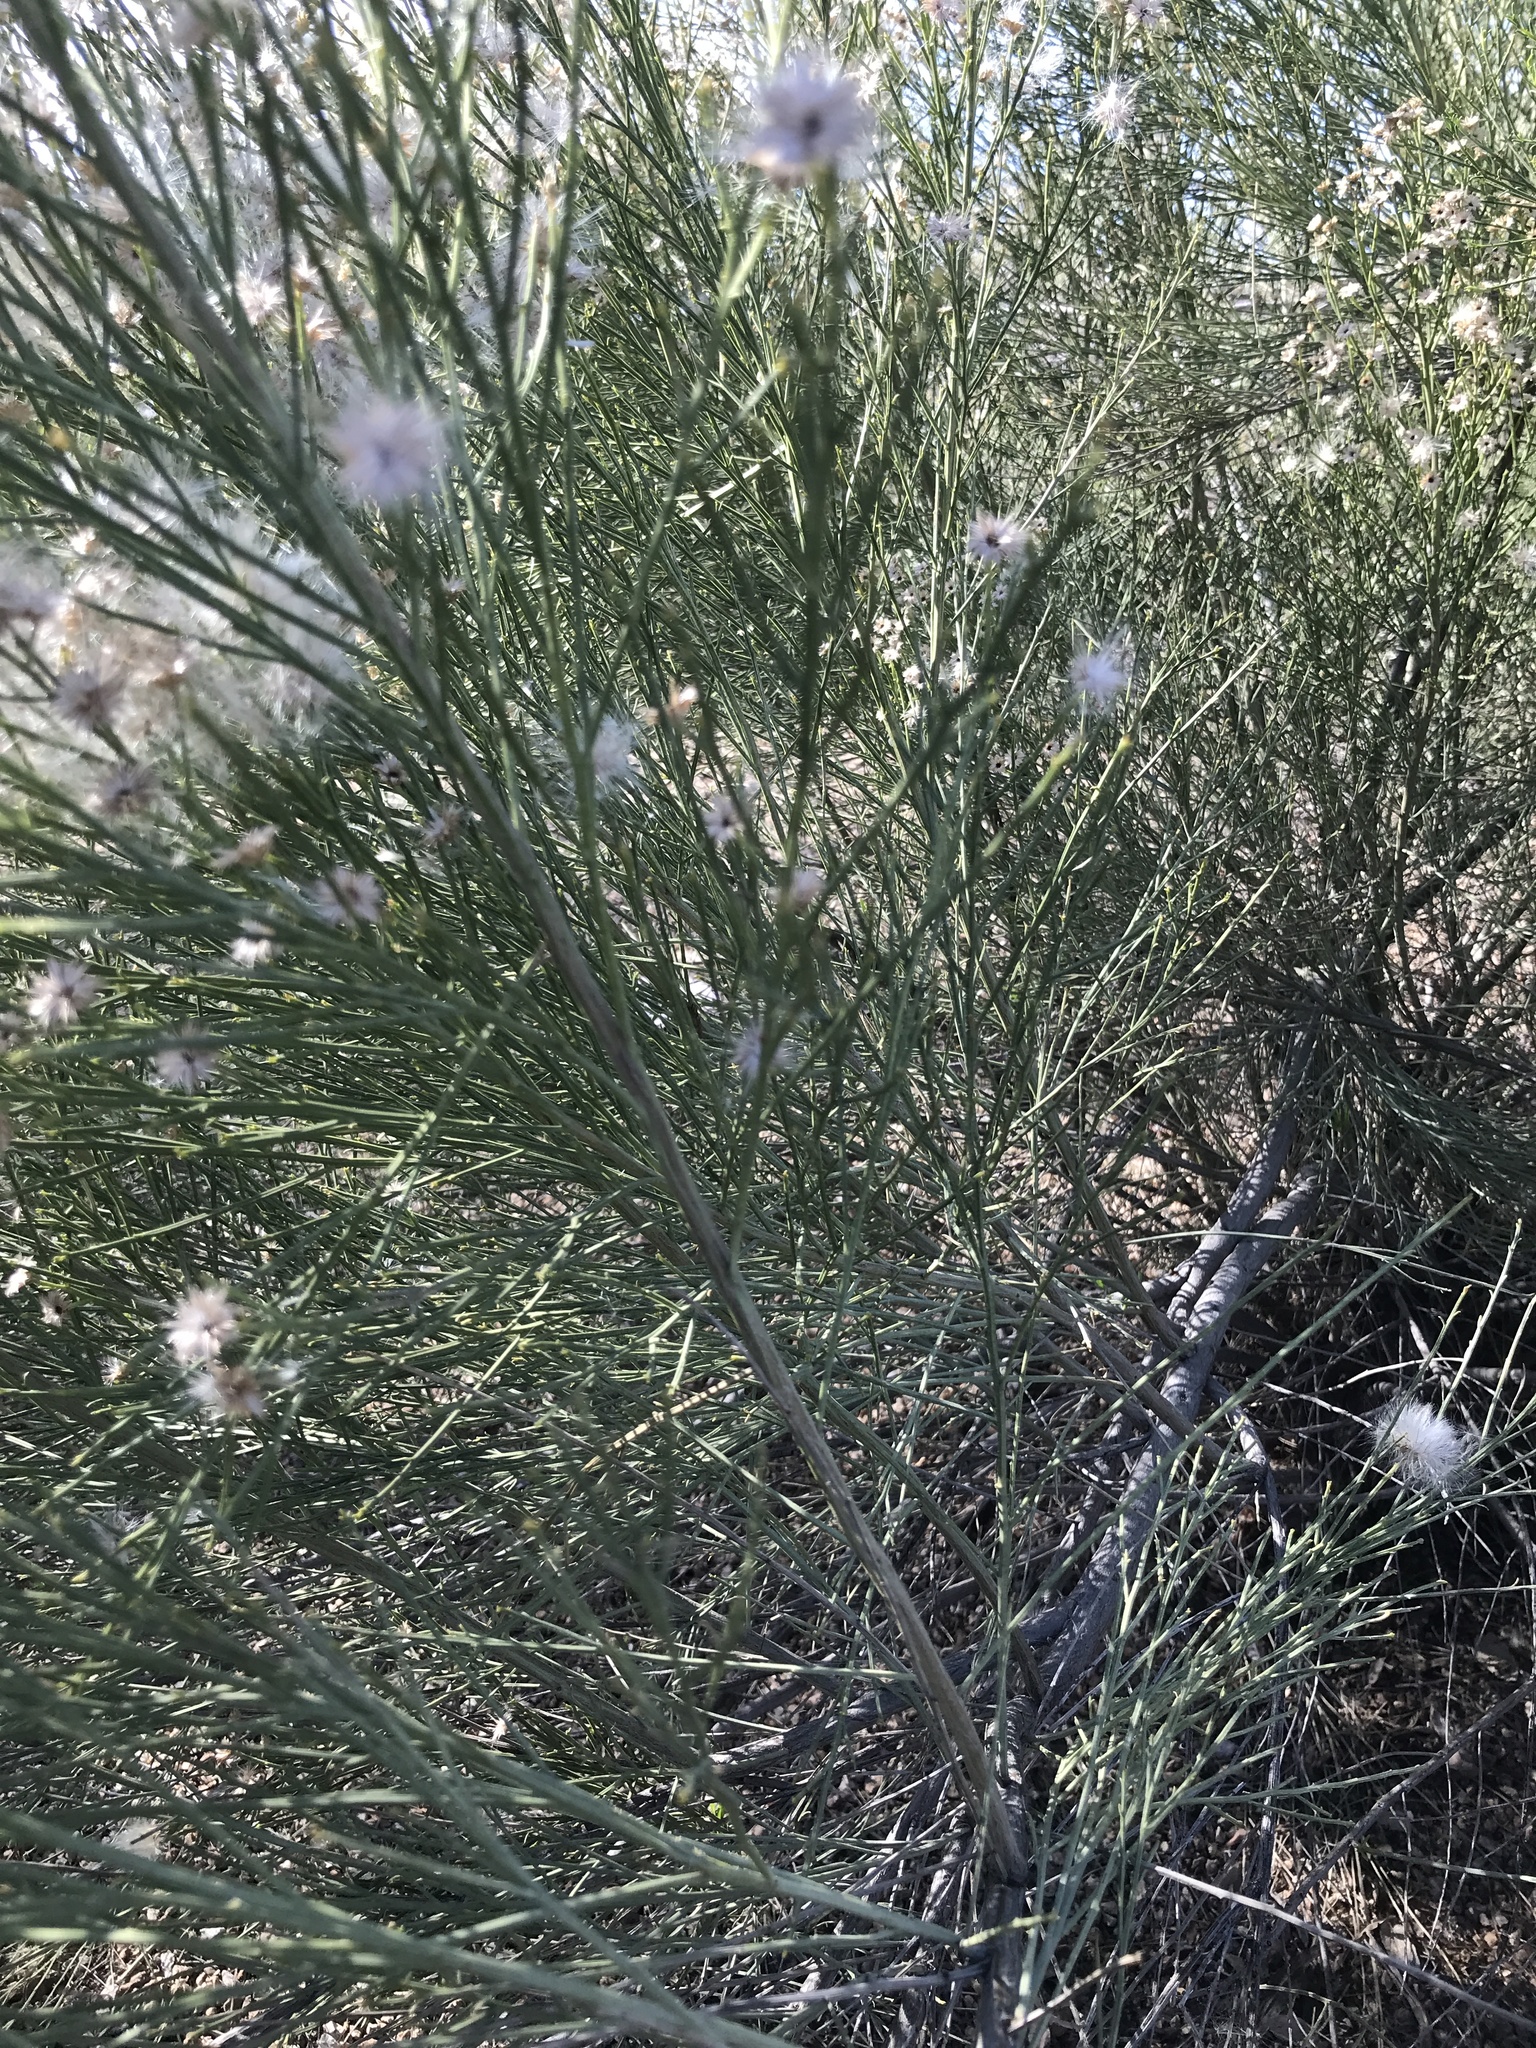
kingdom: Plantae
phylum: Tracheophyta
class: Magnoliopsida
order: Asterales
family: Asteraceae
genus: Baccharis
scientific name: Baccharis sarothroides
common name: Desert-broom
